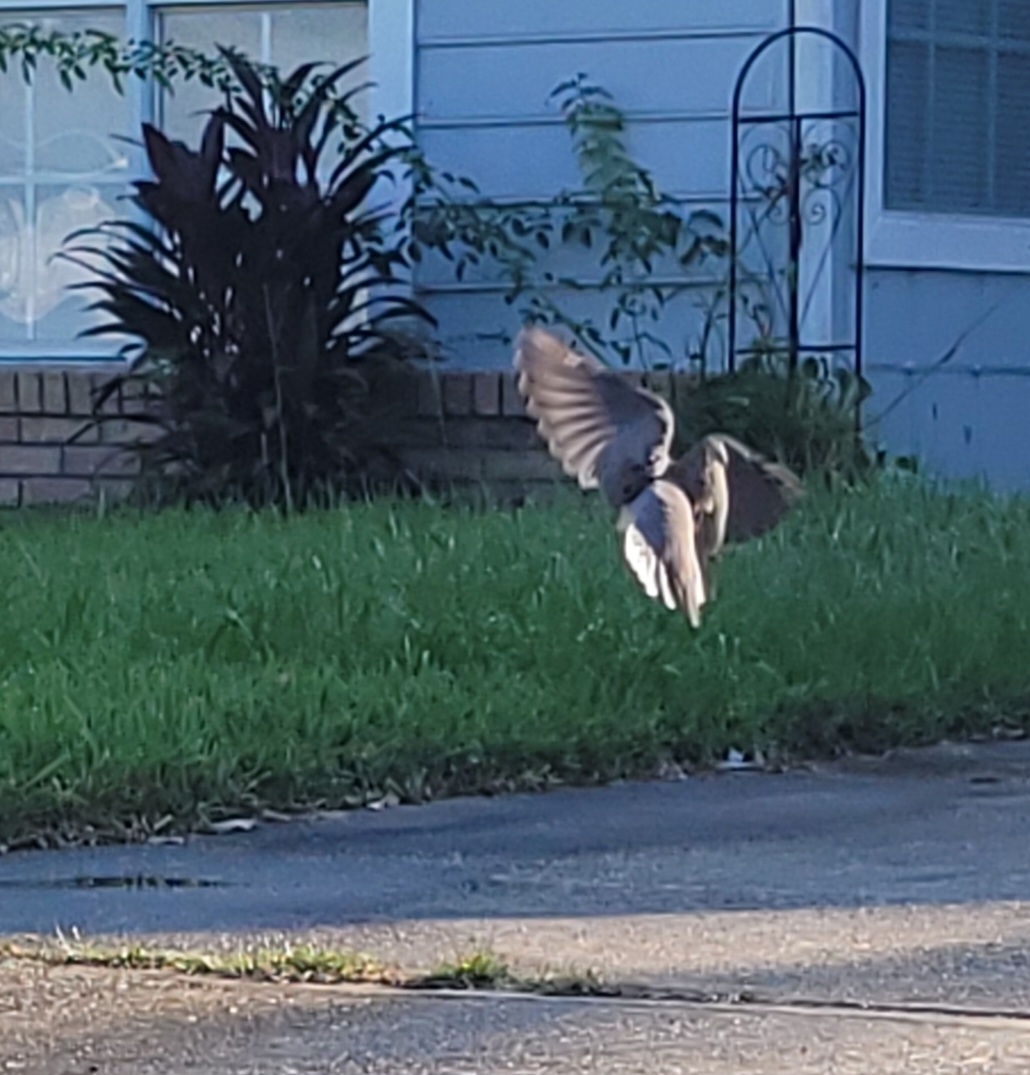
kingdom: Animalia
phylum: Chordata
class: Aves
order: Columbiformes
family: Columbidae
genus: Zenaida
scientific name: Zenaida macroura
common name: Mourning dove
